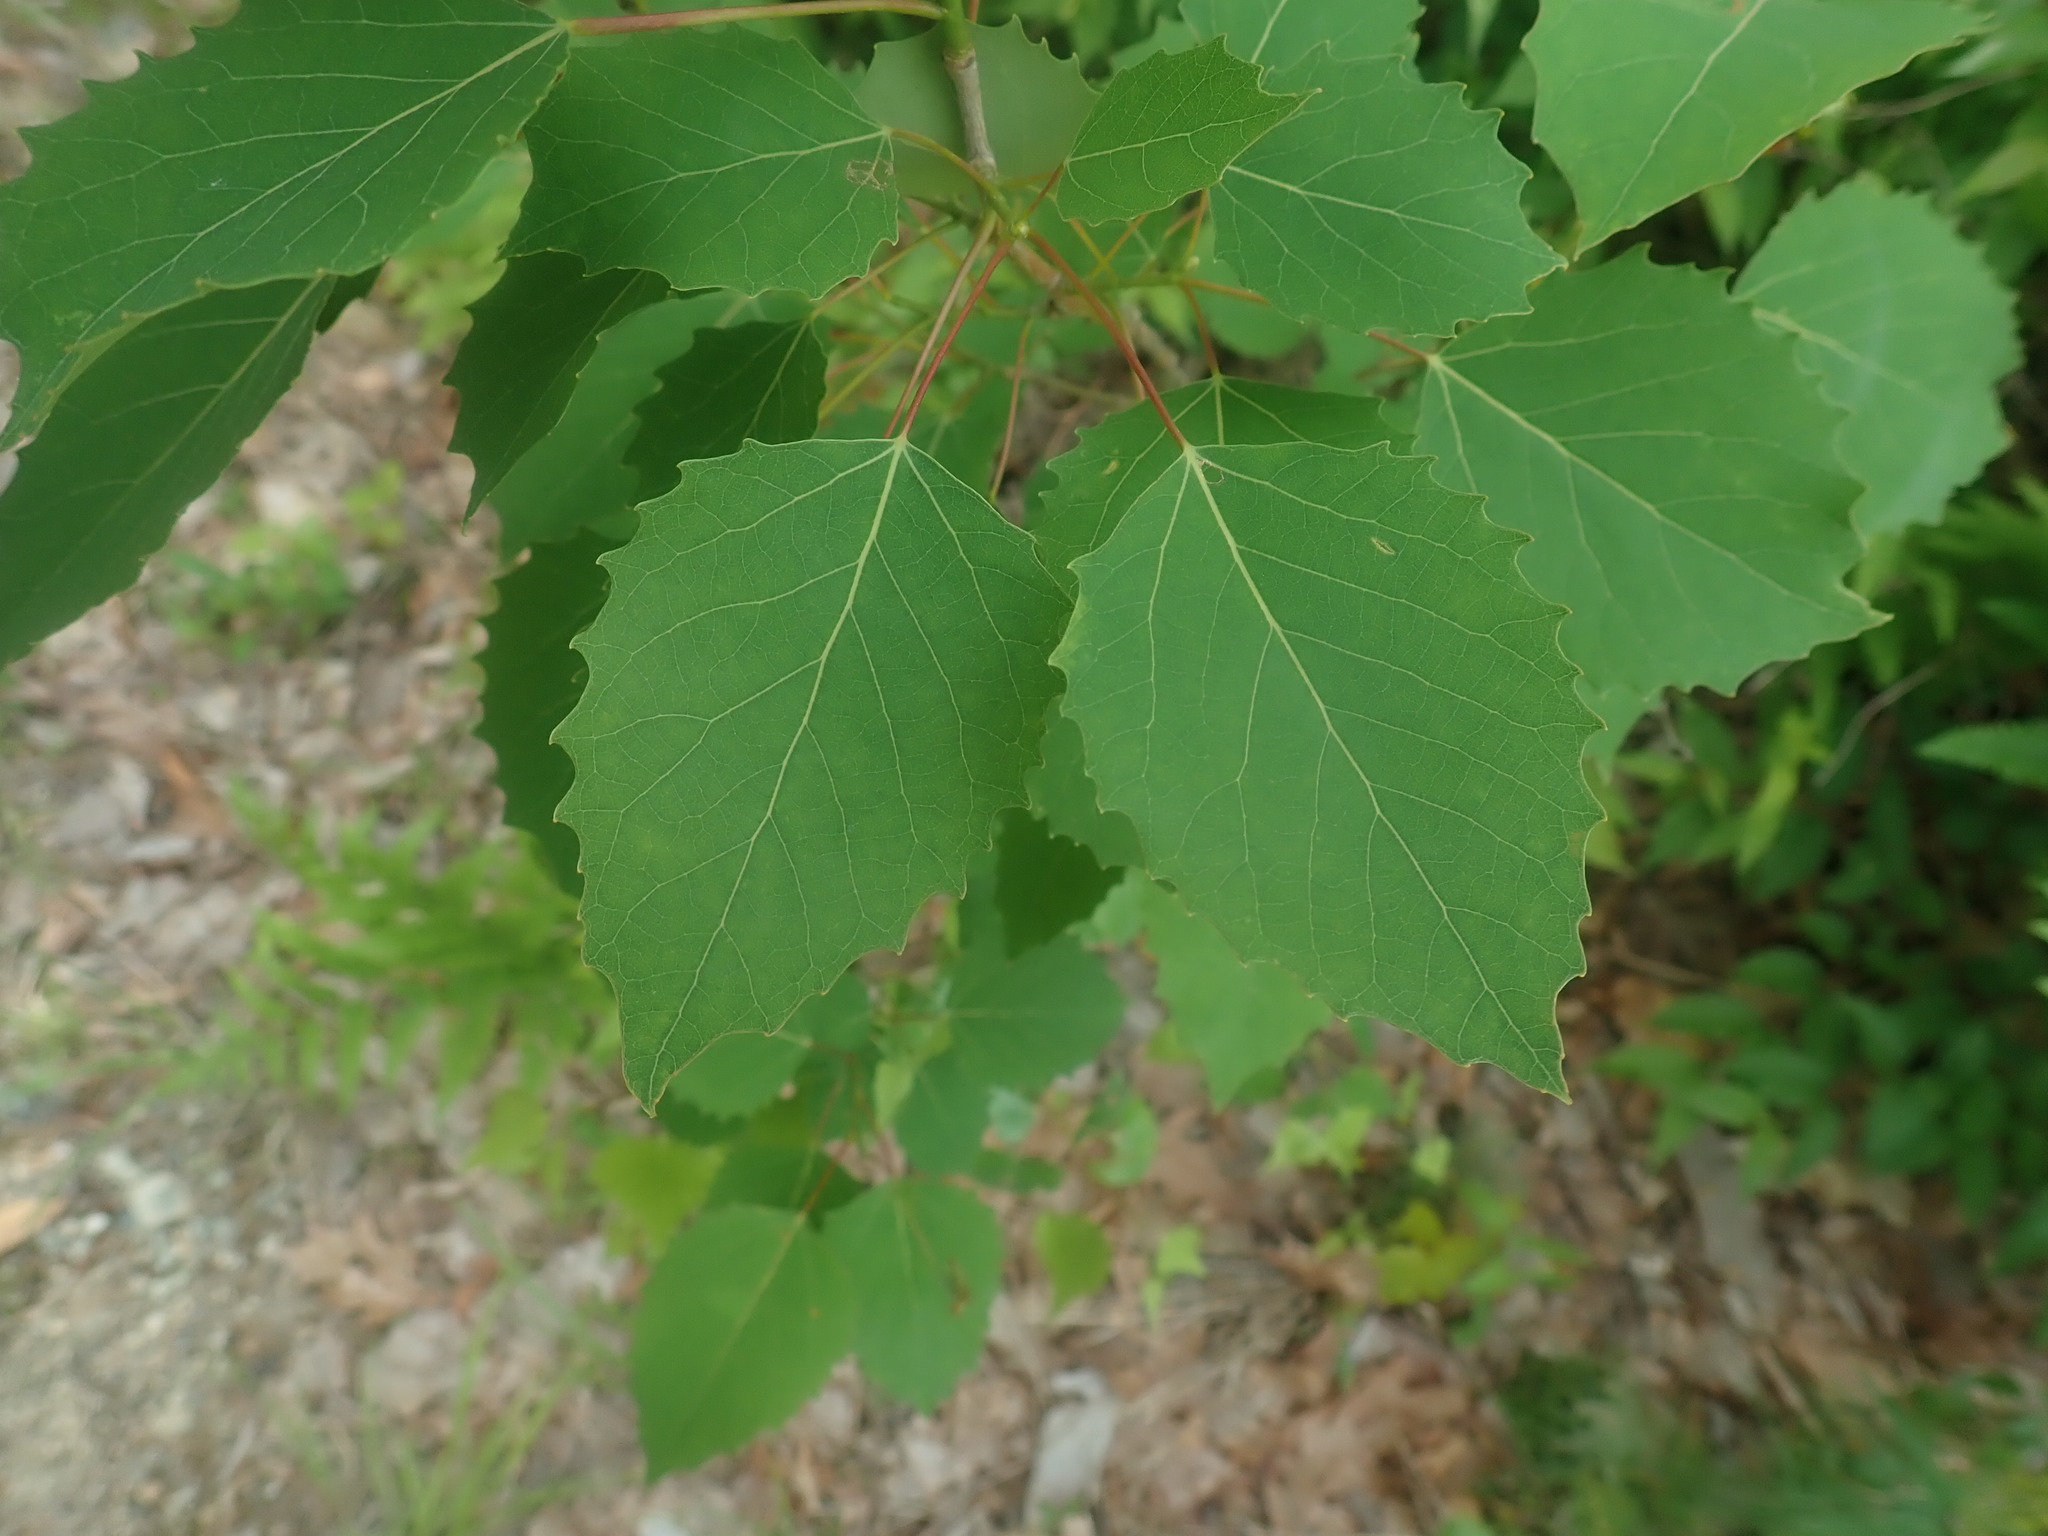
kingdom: Plantae
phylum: Tracheophyta
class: Magnoliopsida
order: Malpighiales
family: Salicaceae
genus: Populus
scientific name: Populus grandidentata
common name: Bigtooth aspen
